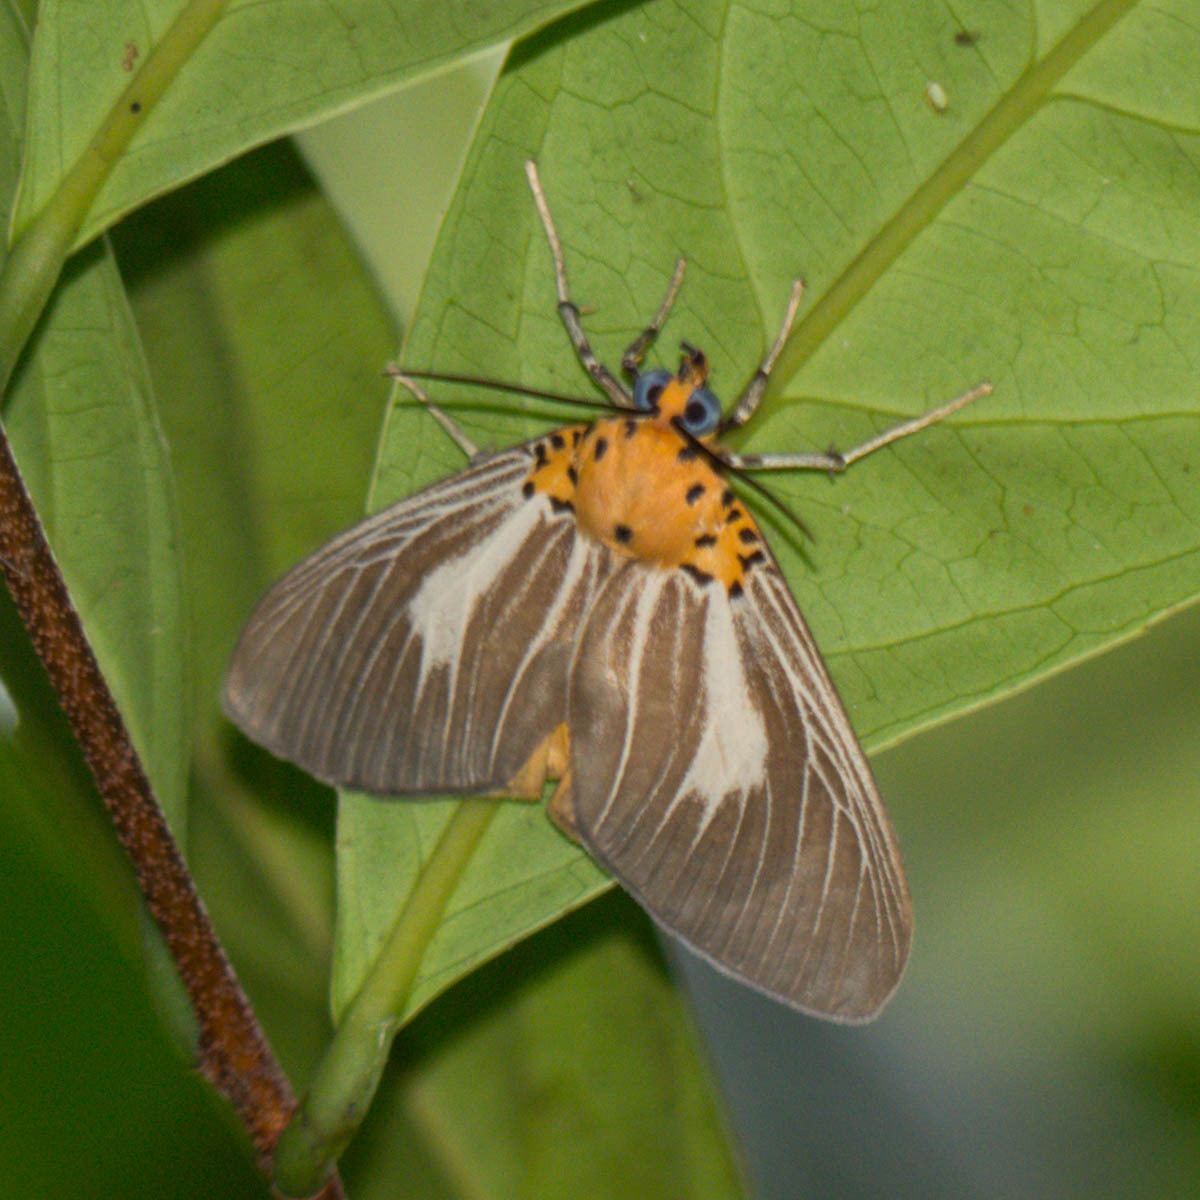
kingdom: Animalia
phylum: Arthropoda
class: Insecta
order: Lepidoptera
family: Erebidae
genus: Asota
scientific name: Asota subsimilis
